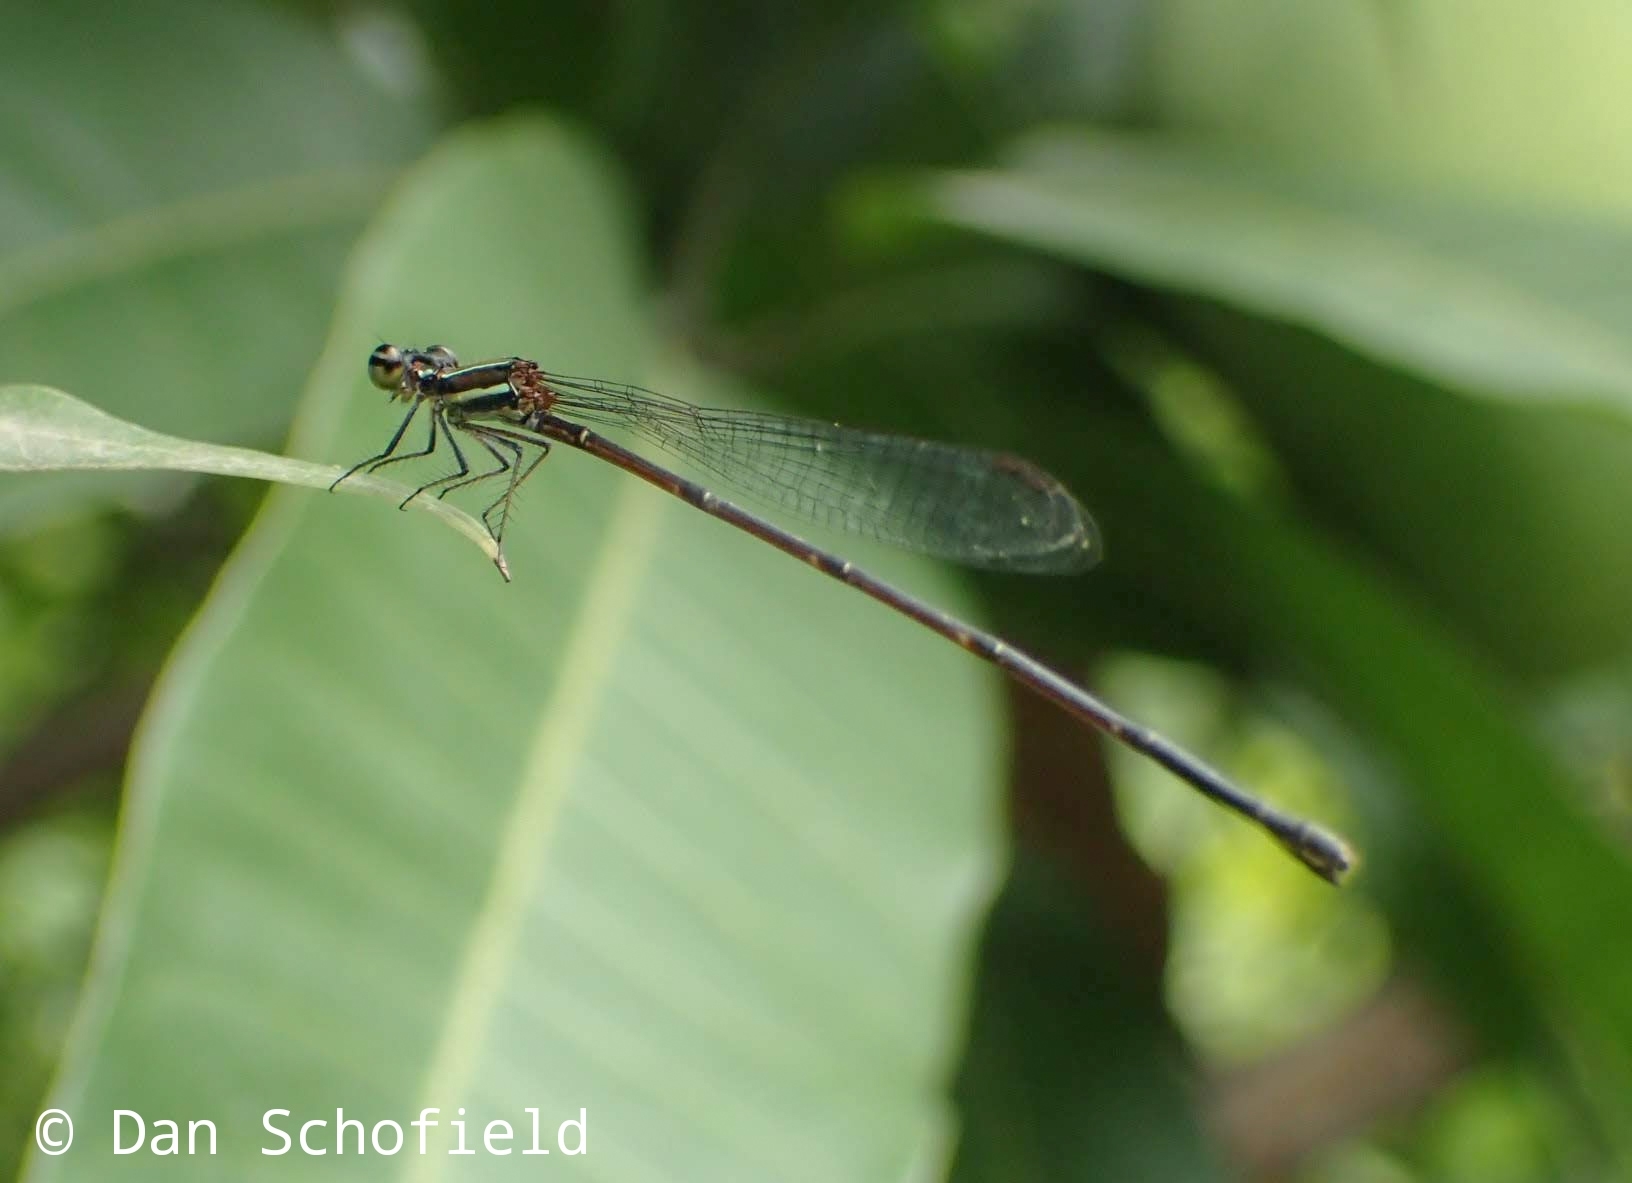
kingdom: Animalia
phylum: Arthropoda
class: Insecta
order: Odonata
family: Platycnemididae
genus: Prodasineura
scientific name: Prodasineura autumnalis
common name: Black threadtail
